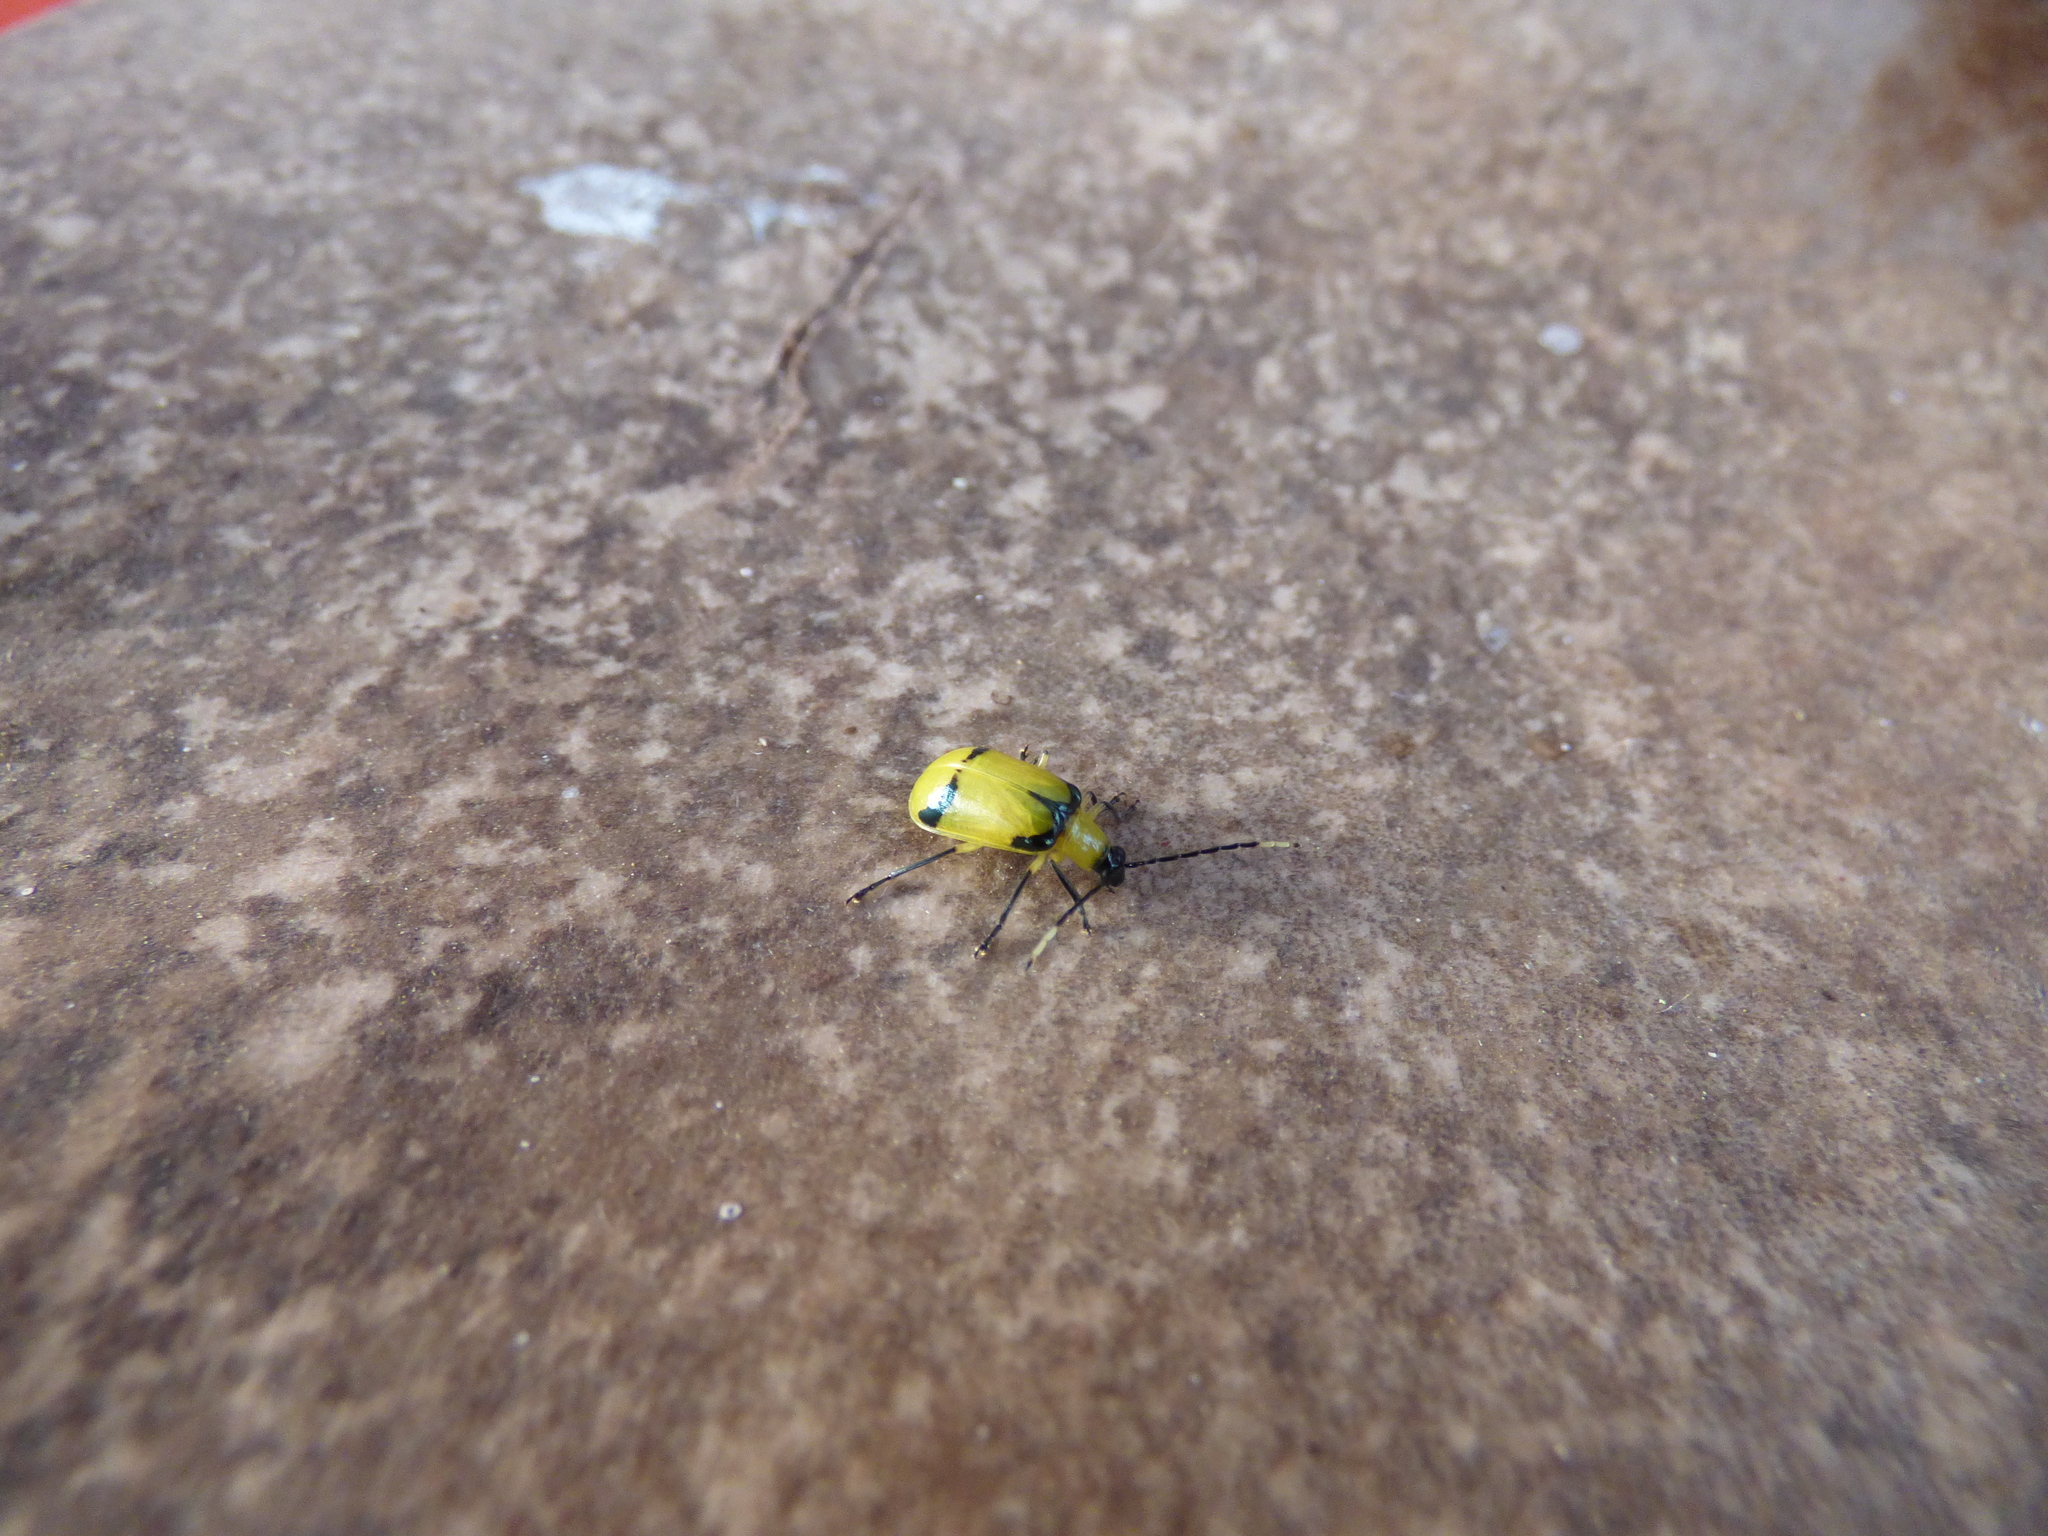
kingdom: Animalia
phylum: Arthropoda
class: Insecta
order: Coleoptera
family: Chrysomelidae
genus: Diabrotica
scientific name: Diabrotica
